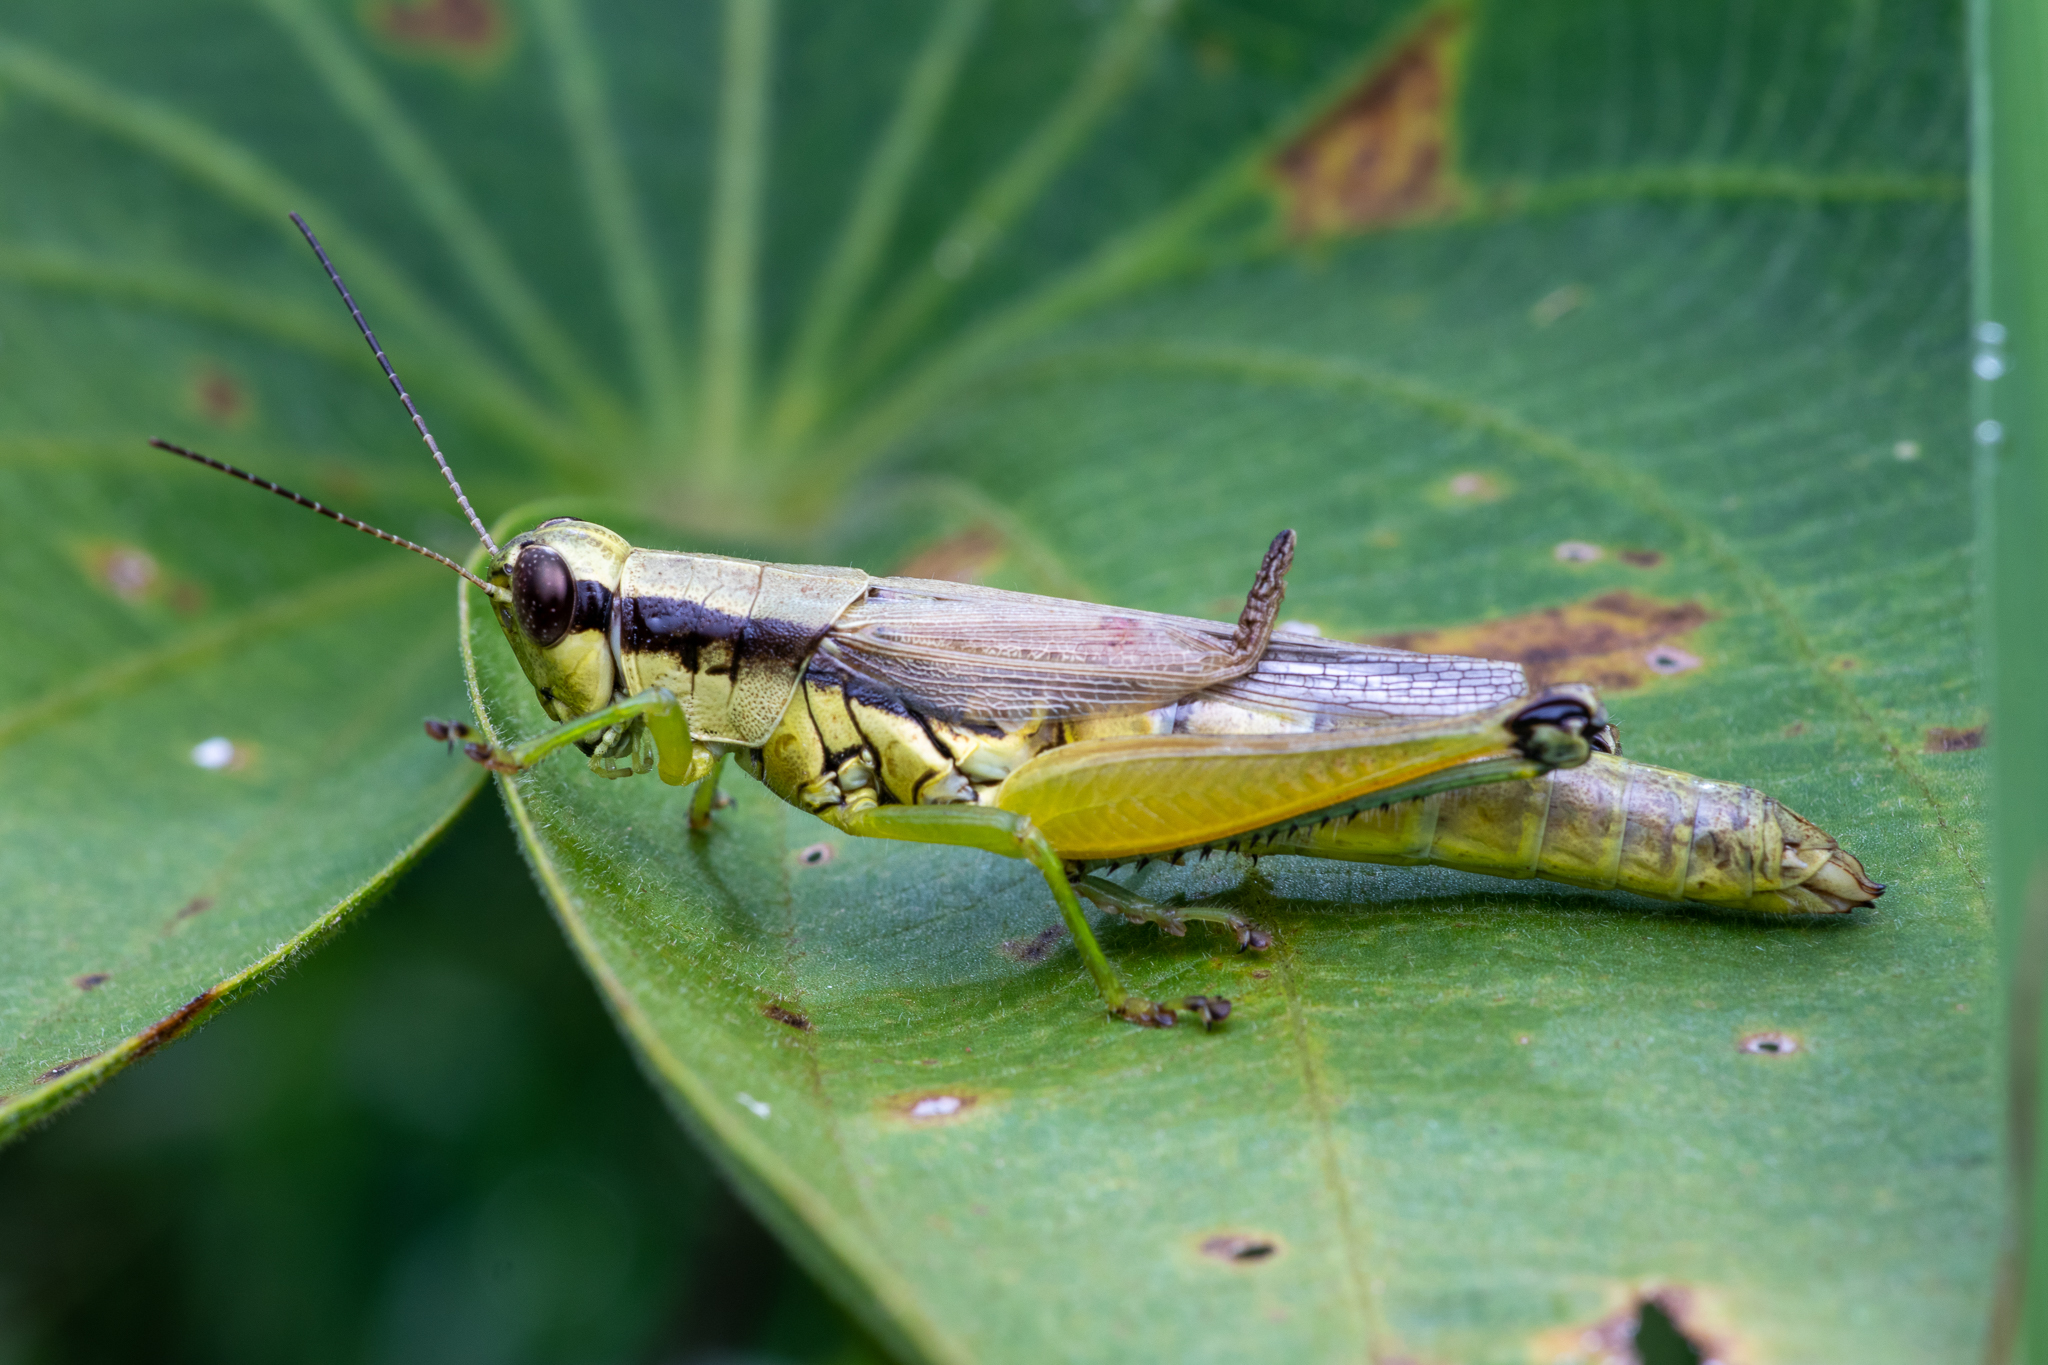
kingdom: Animalia
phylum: Arthropoda
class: Insecta
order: Orthoptera
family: Acrididae
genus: Paroxya
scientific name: Paroxya clavuligera
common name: Olive-green swamp grasshopper
